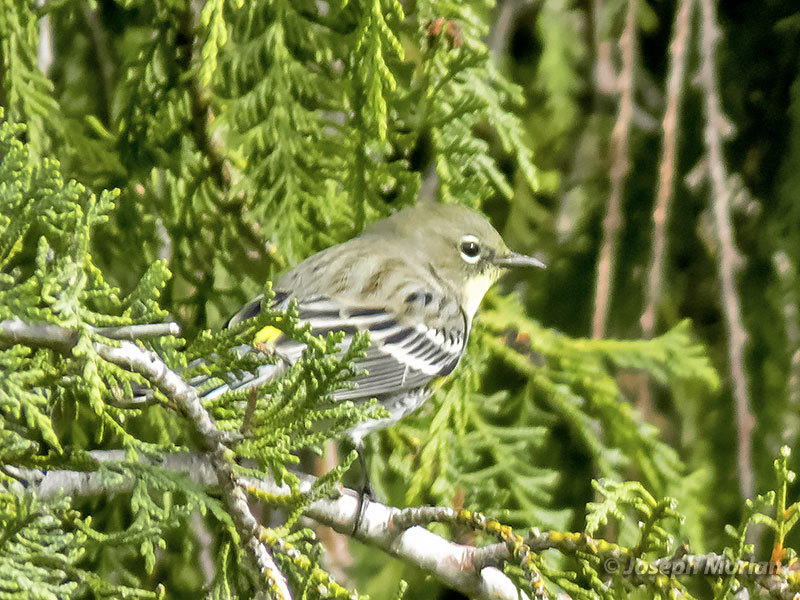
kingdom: Animalia
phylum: Chordata
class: Aves
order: Passeriformes
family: Parulidae
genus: Setophaga
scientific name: Setophaga coronata
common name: Myrtle warbler
